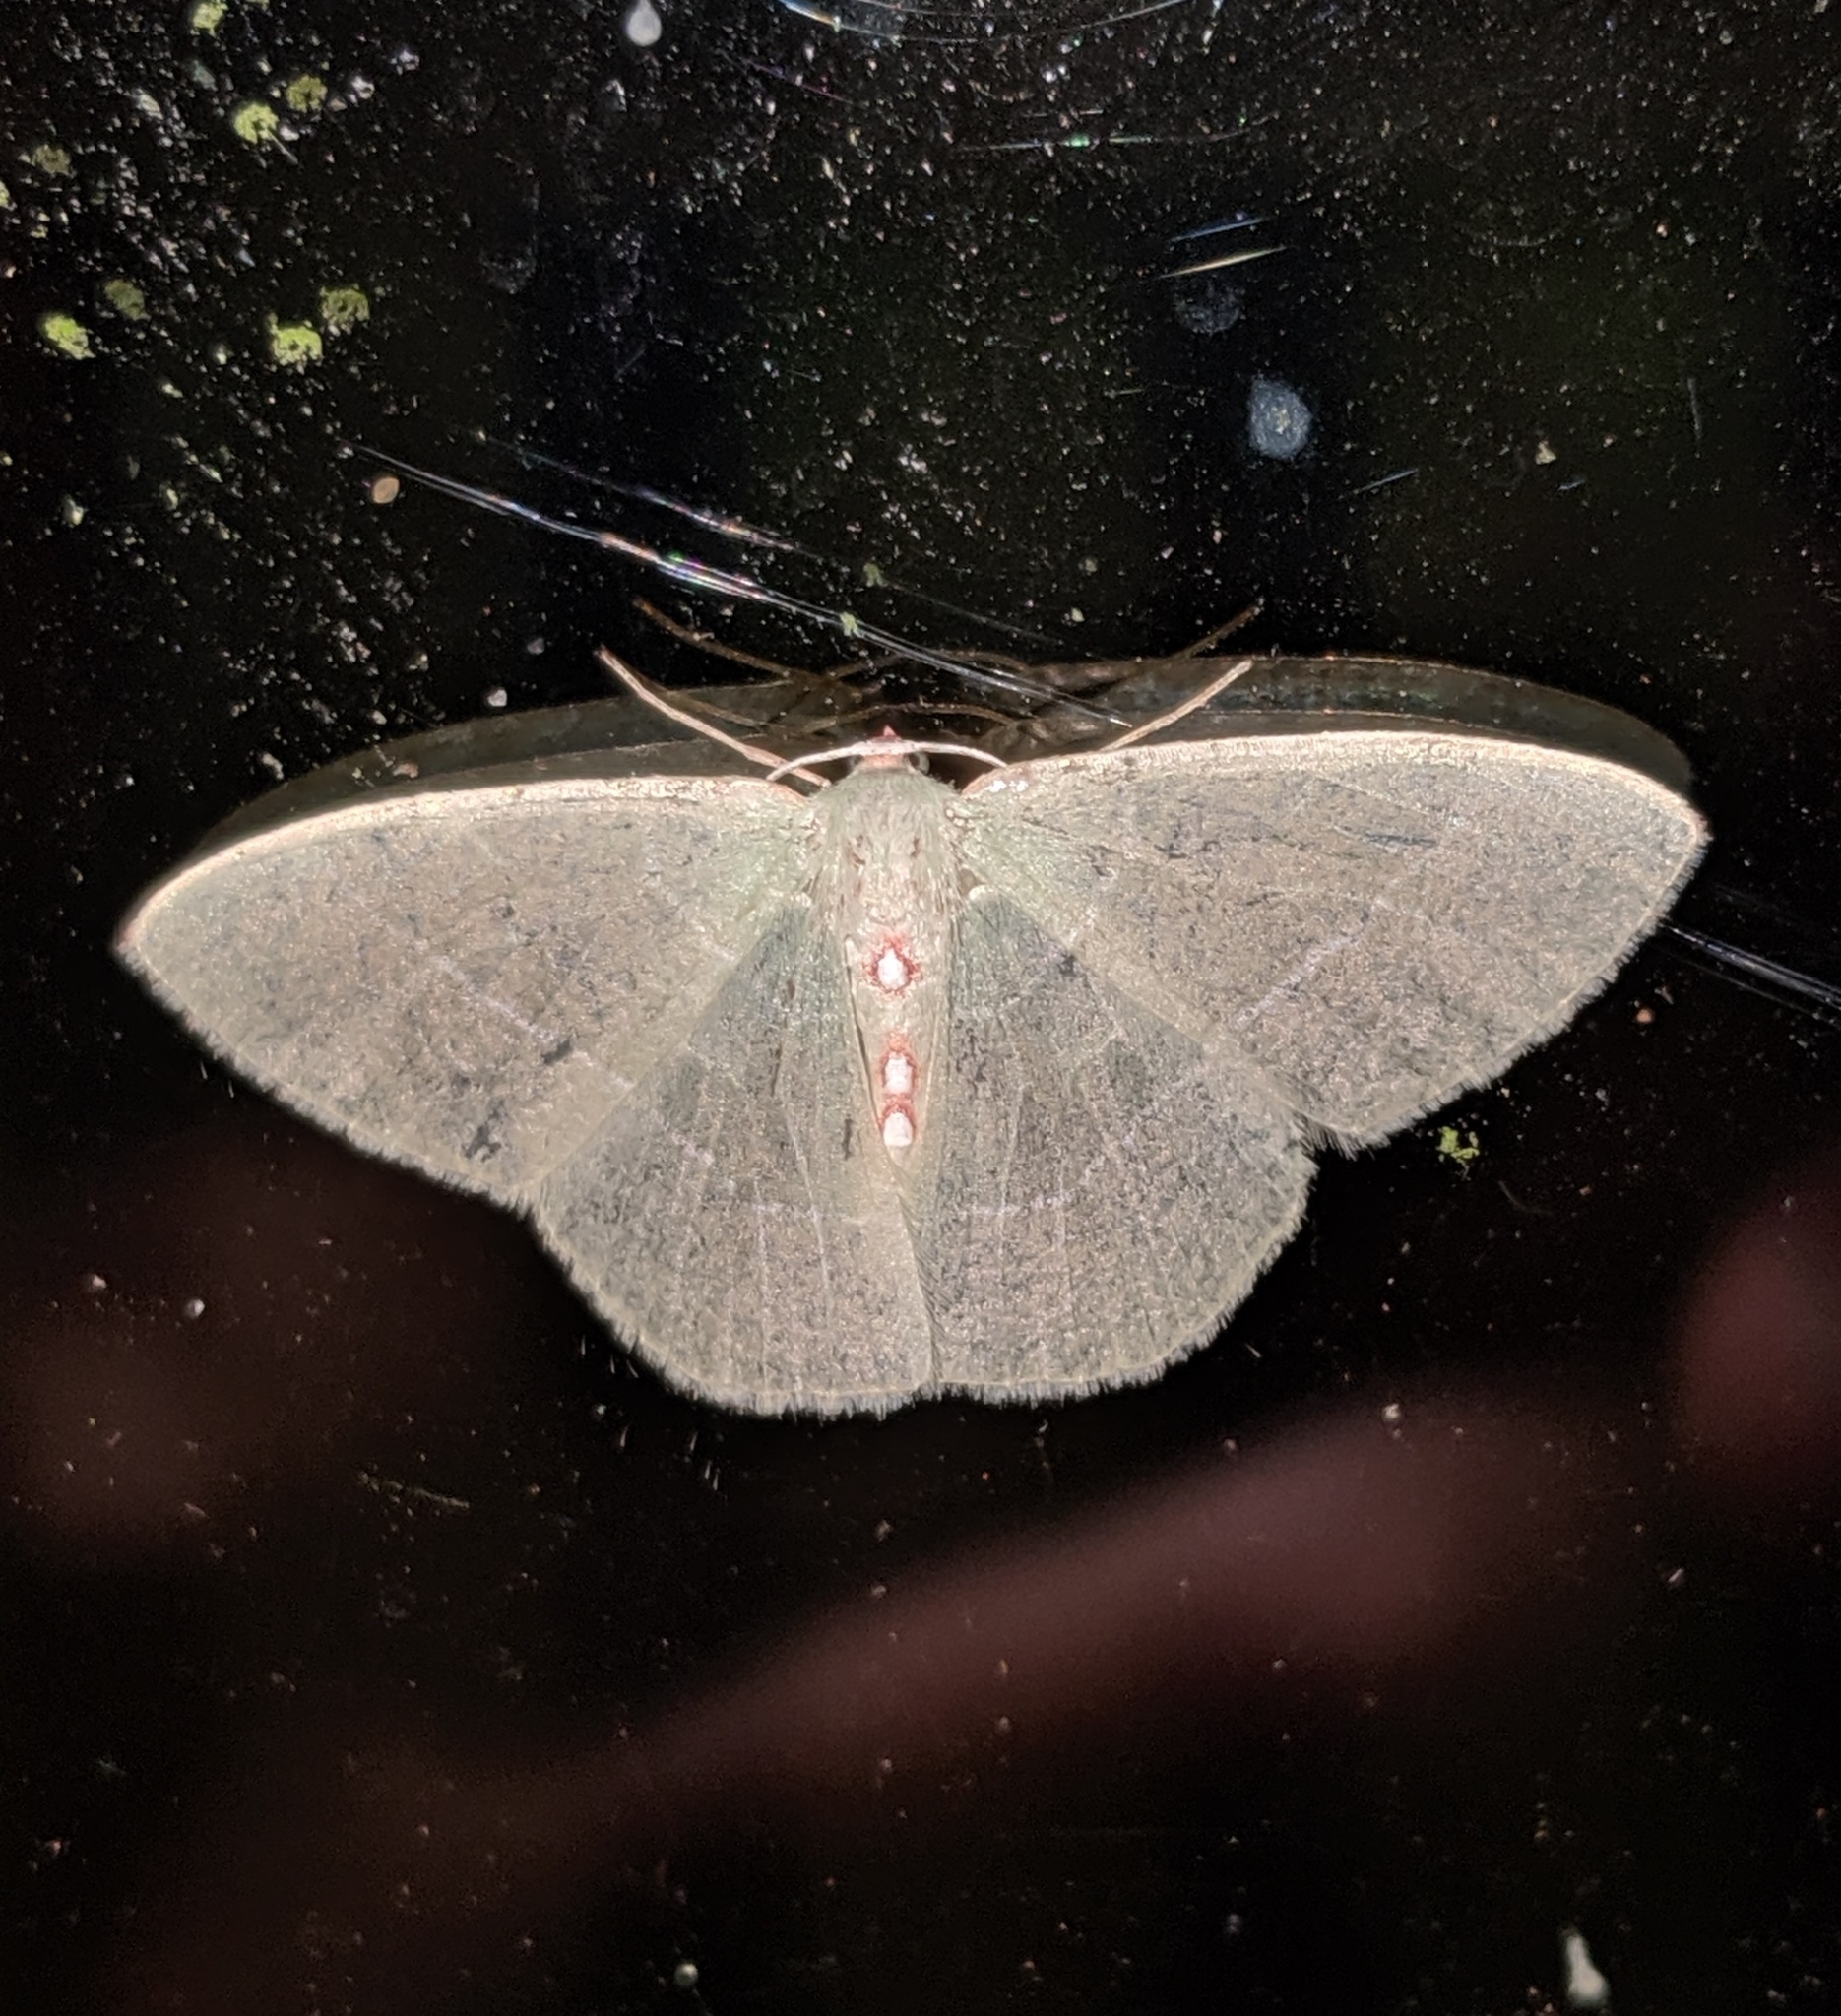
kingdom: Animalia
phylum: Arthropoda
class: Insecta
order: Lepidoptera
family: Geometridae
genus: Nemoria
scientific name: Nemoria darwiniata
